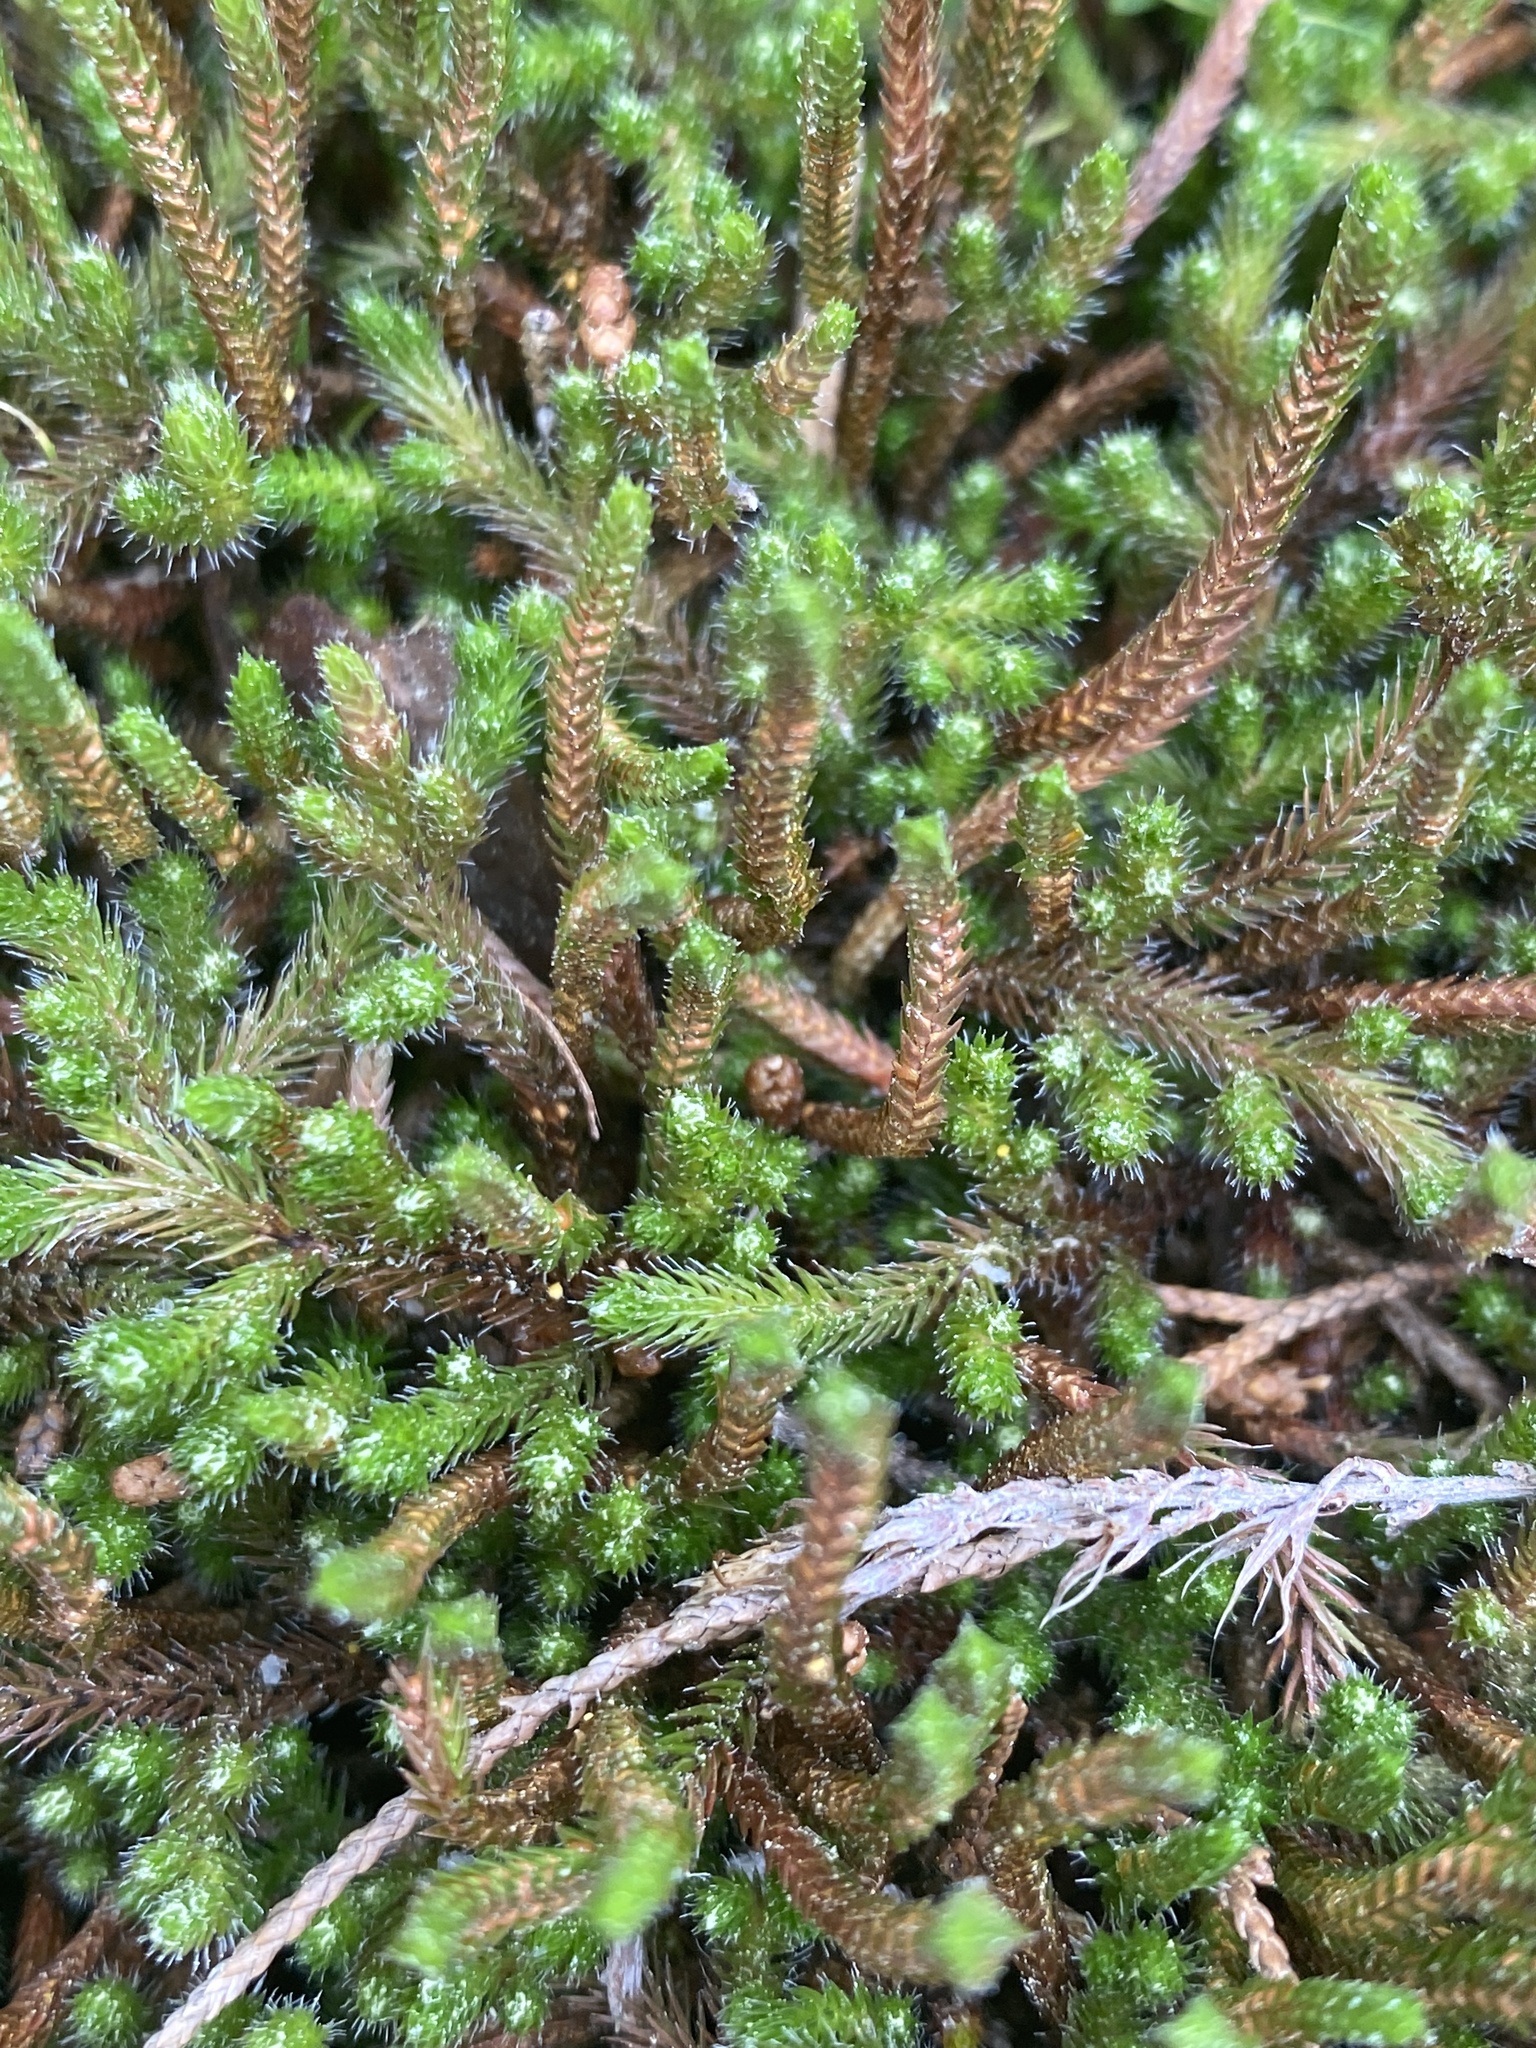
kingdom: Plantae
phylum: Tracheophyta
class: Lycopodiopsida
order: Selaginellales
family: Selaginellaceae
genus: Selaginella
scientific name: Selaginella rupestris
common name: Dwarf spikemoss
